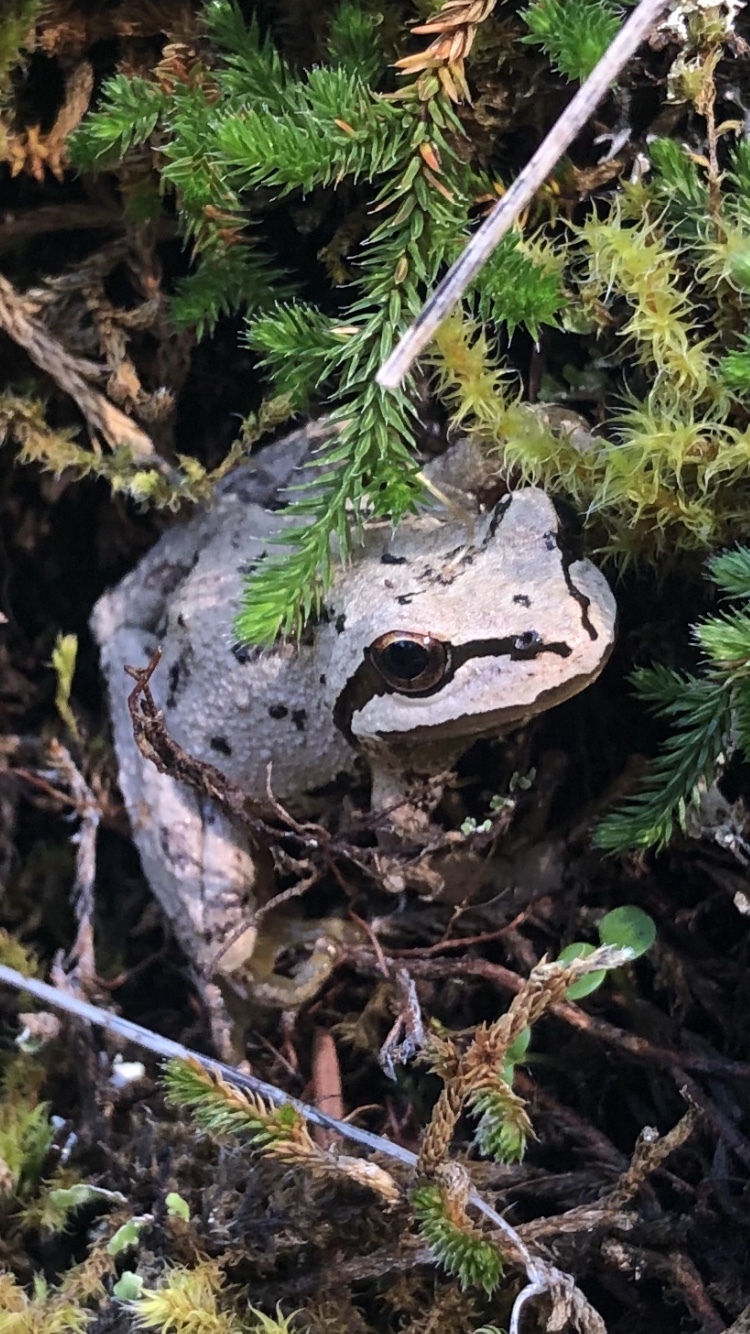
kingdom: Animalia
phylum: Chordata
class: Amphibia
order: Anura
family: Hylidae
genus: Pseudacris
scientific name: Pseudacris regilla
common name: Pacific chorus frog
